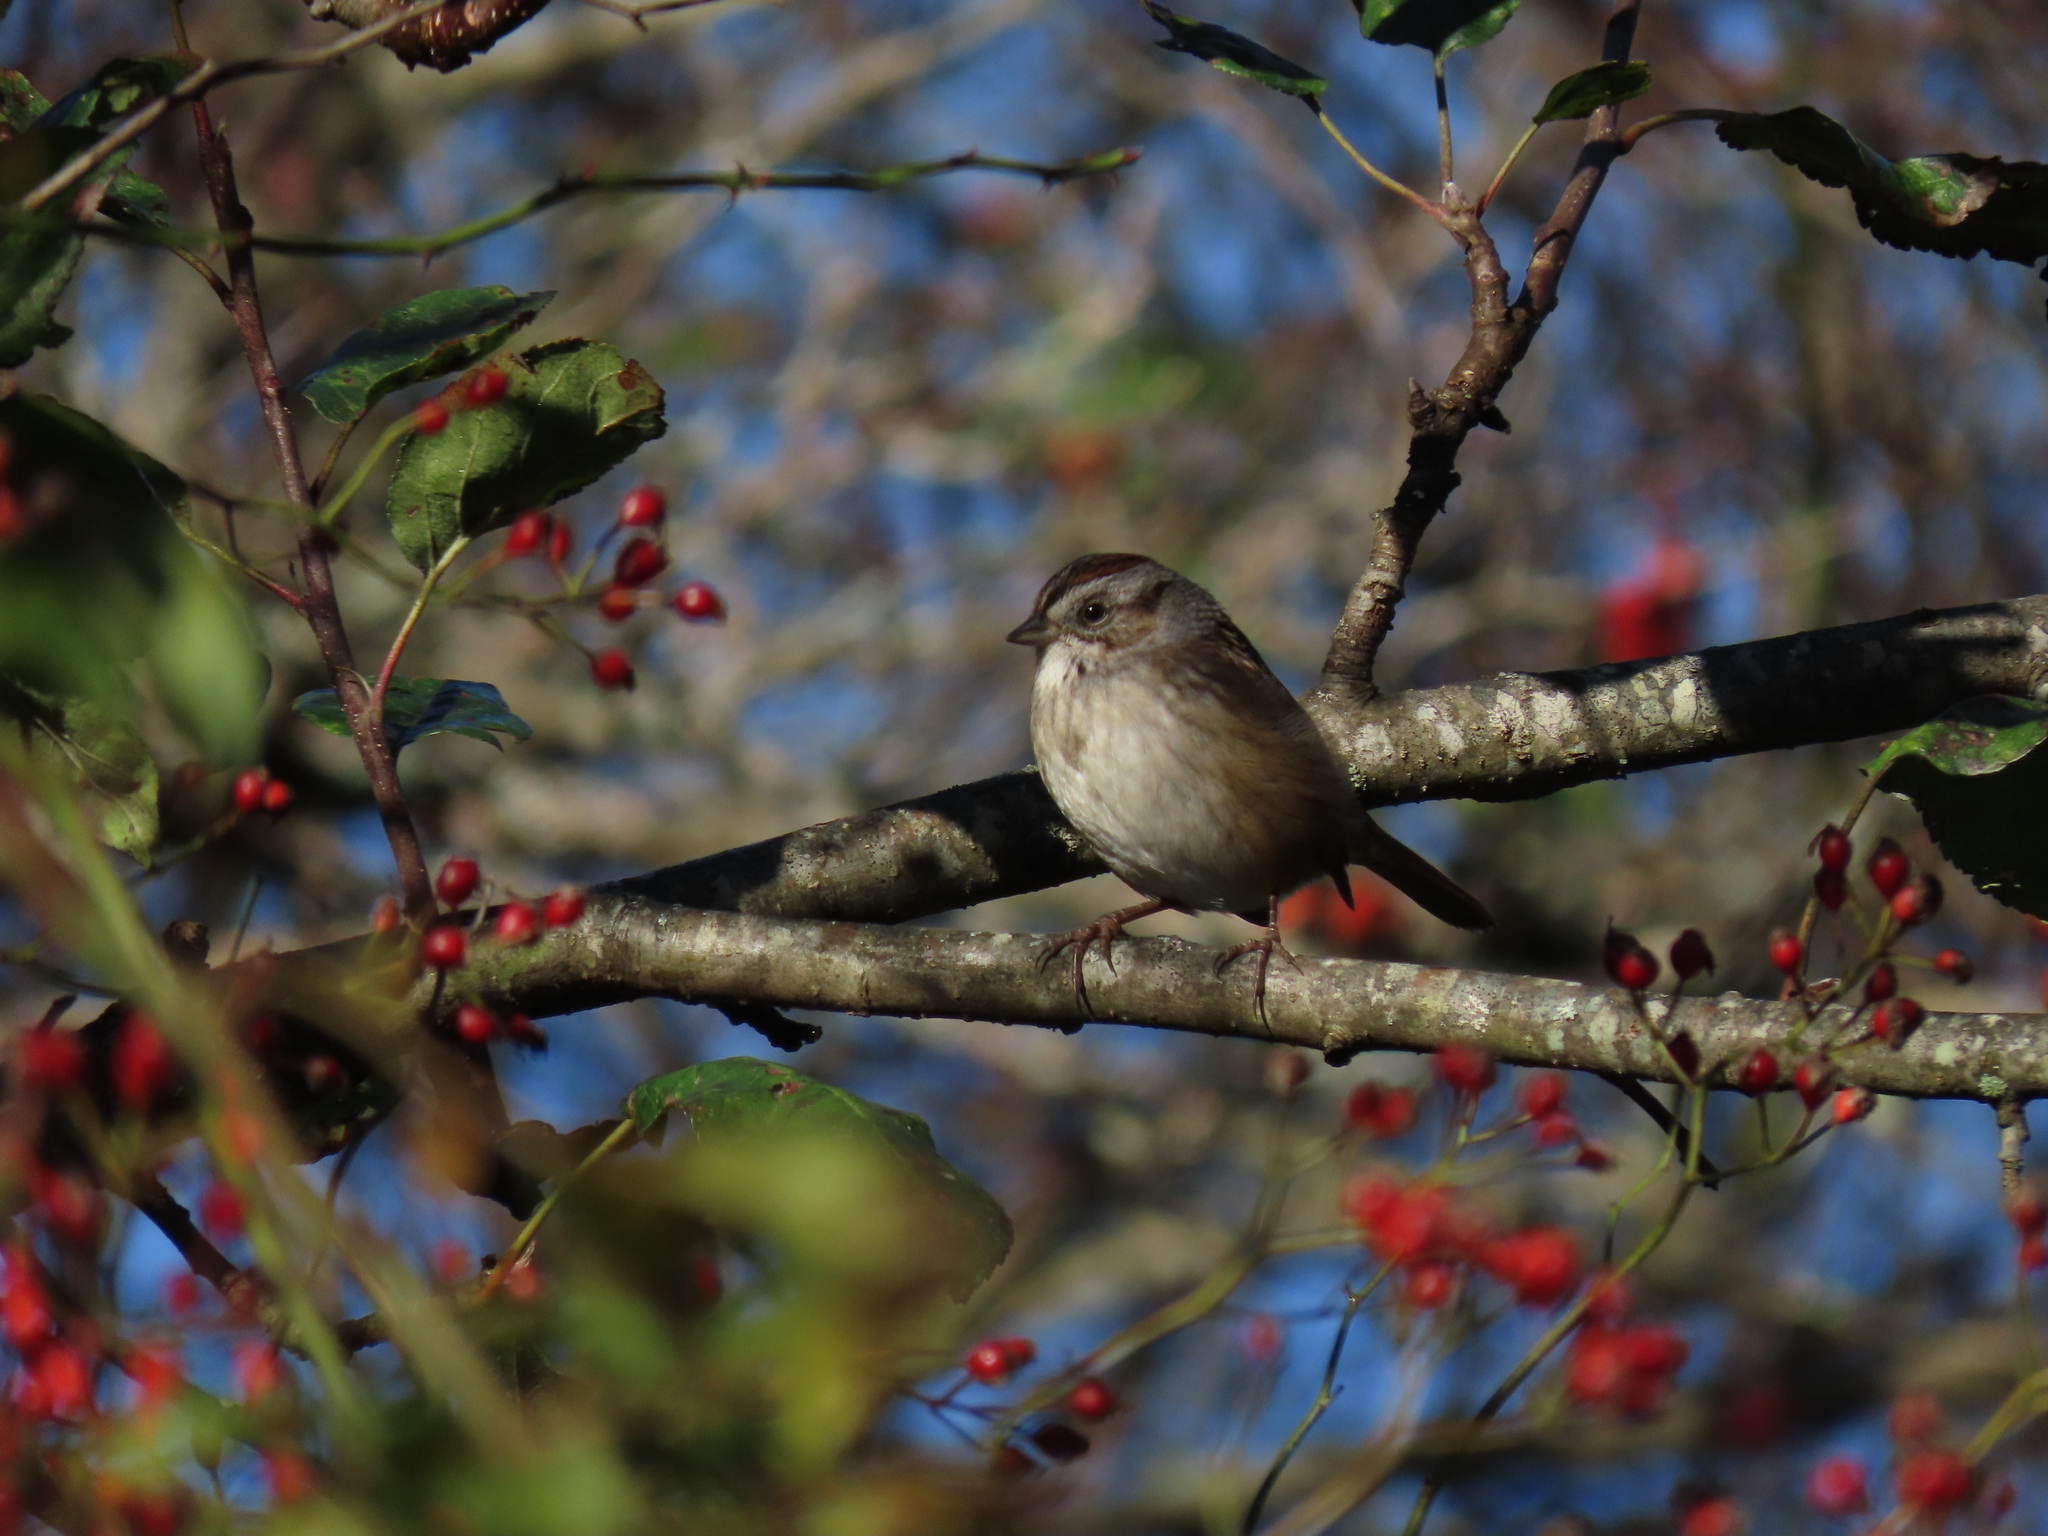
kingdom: Animalia
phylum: Chordata
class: Aves
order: Passeriformes
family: Passerellidae
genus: Melospiza
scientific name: Melospiza georgiana
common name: Swamp sparrow
